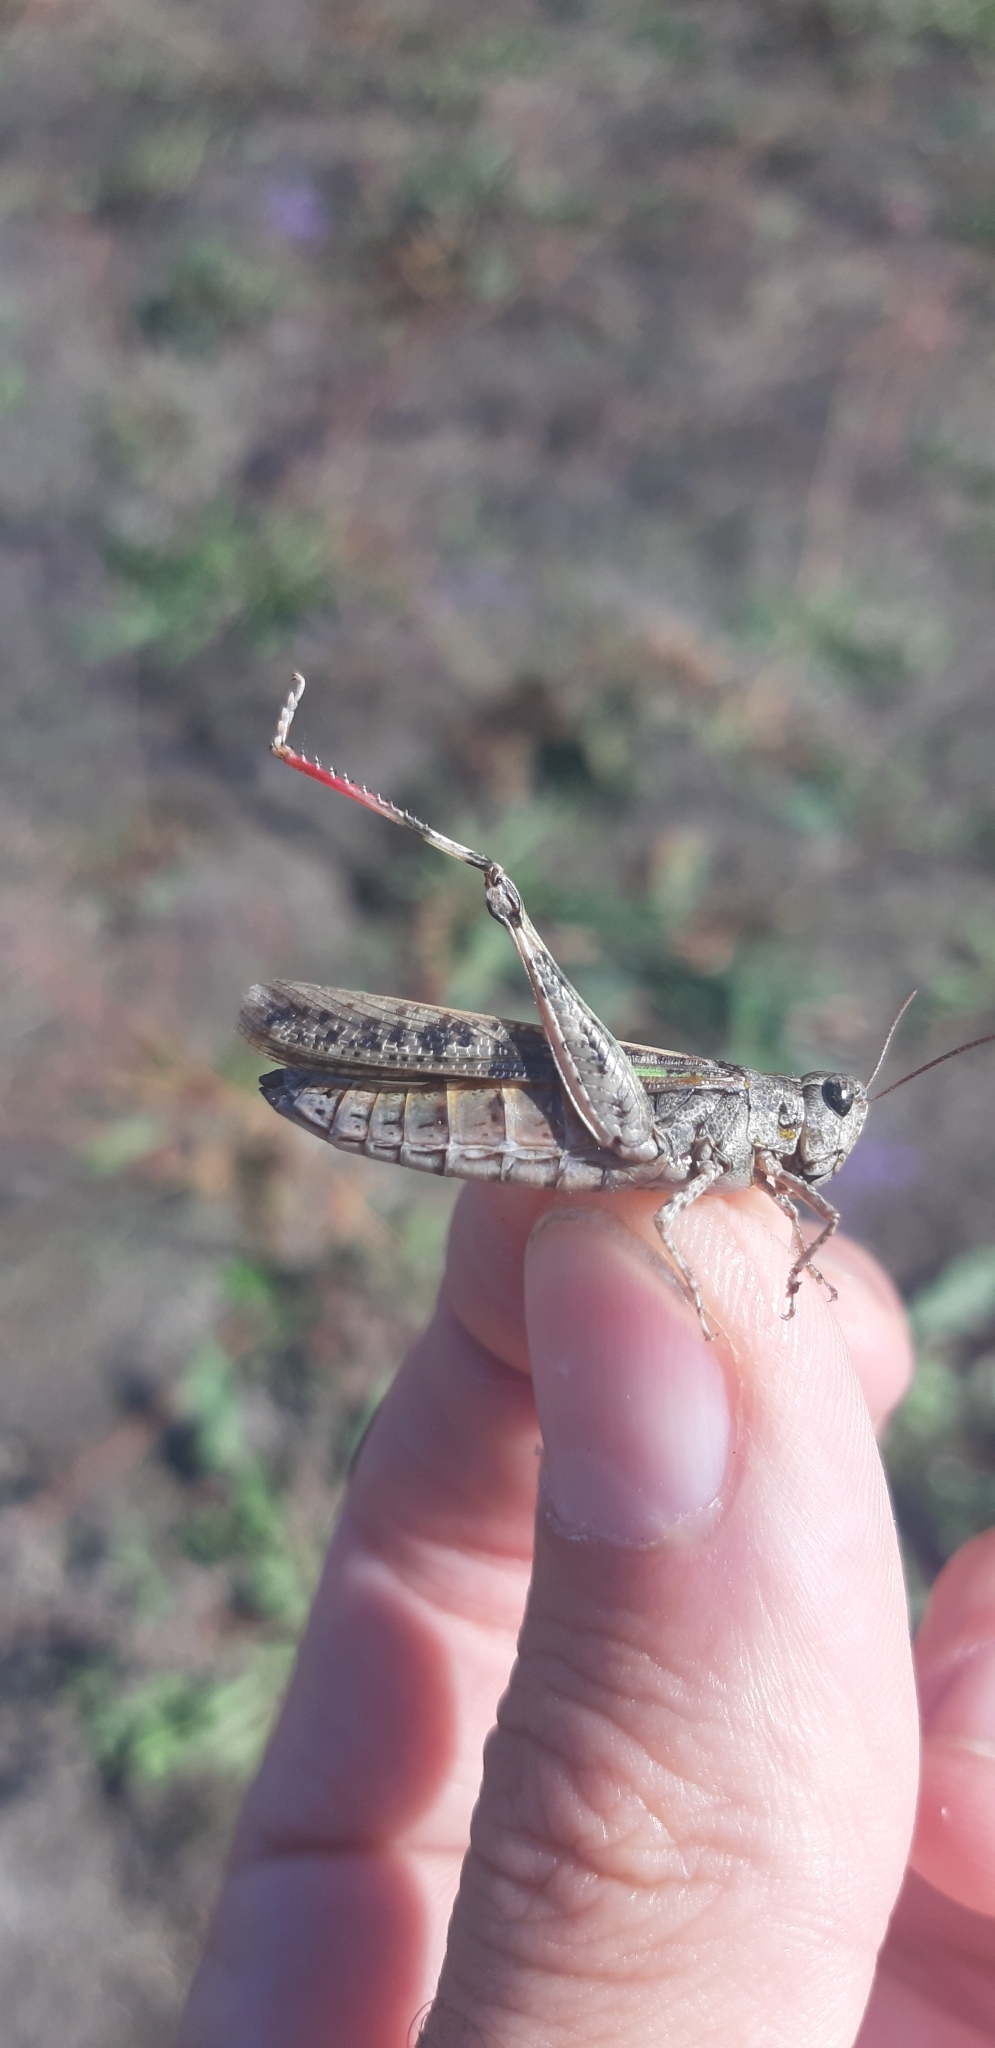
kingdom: Animalia
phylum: Arthropoda
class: Insecta
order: Orthoptera
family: Acrididae
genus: Aiolopus
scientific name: Aiolopus thalassinus
